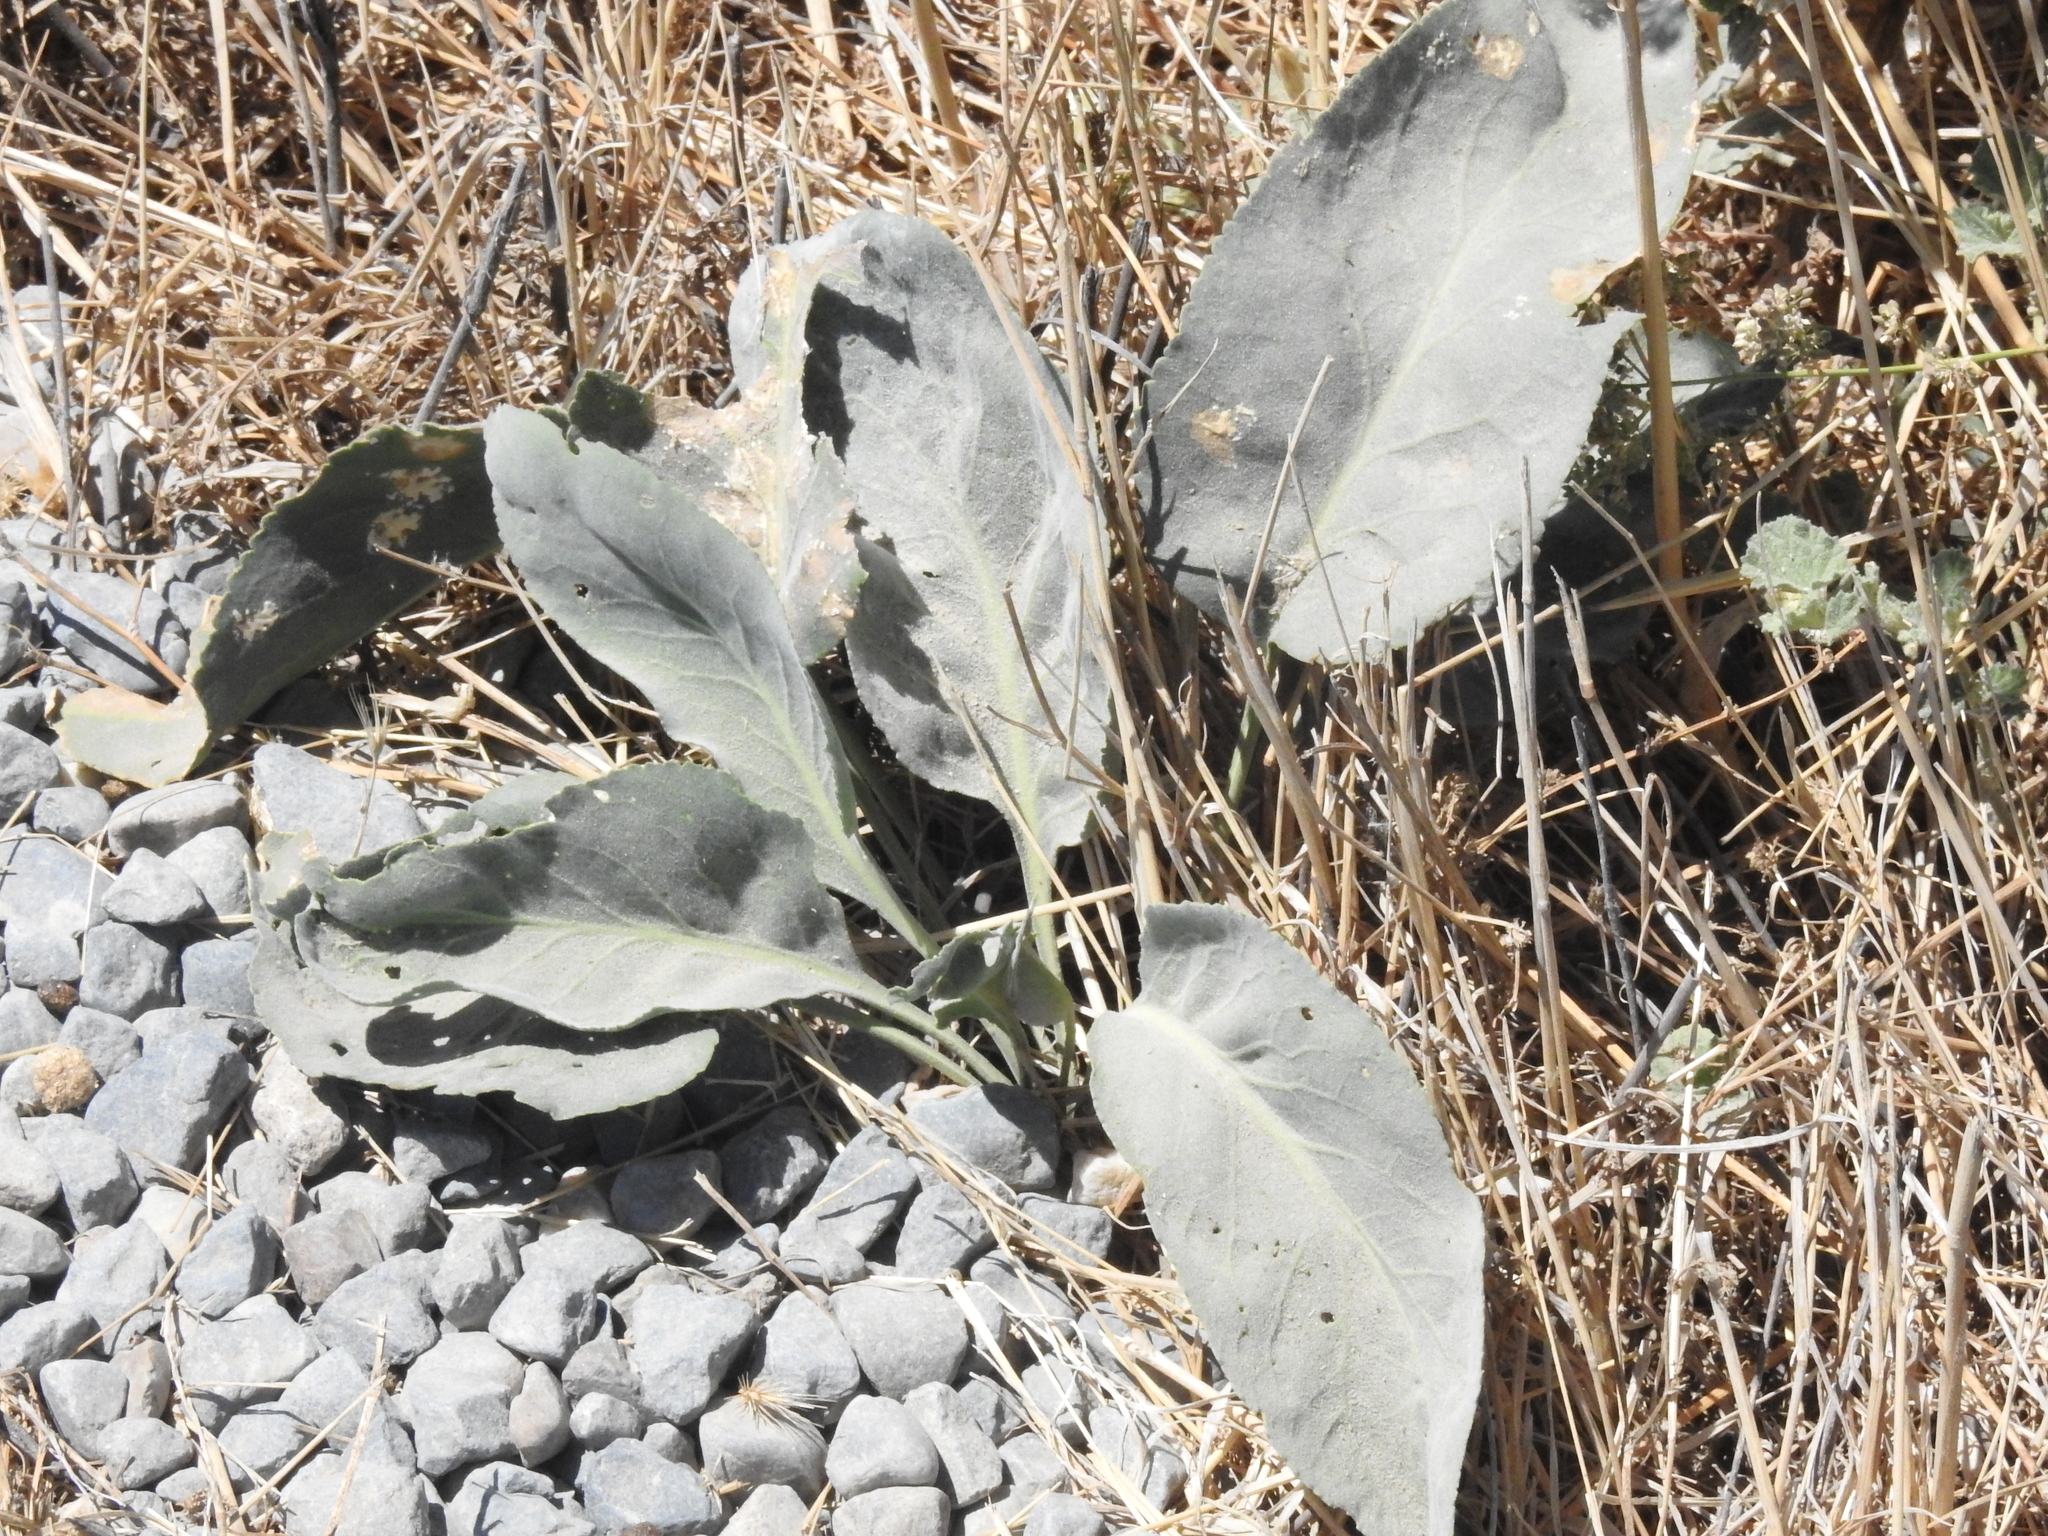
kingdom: Plantae
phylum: Tracheophyta
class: Magnoliopsida
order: Brassicales
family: Brassicaceae
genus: Lepidium
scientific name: Lepidium latifolium
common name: Dittander
